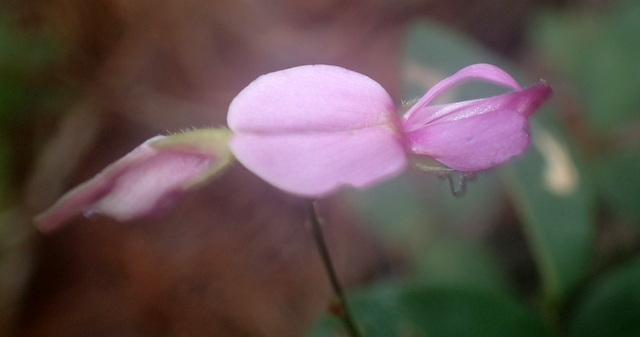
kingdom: Plantae
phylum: Tracheophyta
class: Magnoliopsida
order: Fabales
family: Fabaceae
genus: Galactia
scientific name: Galactia regularis
